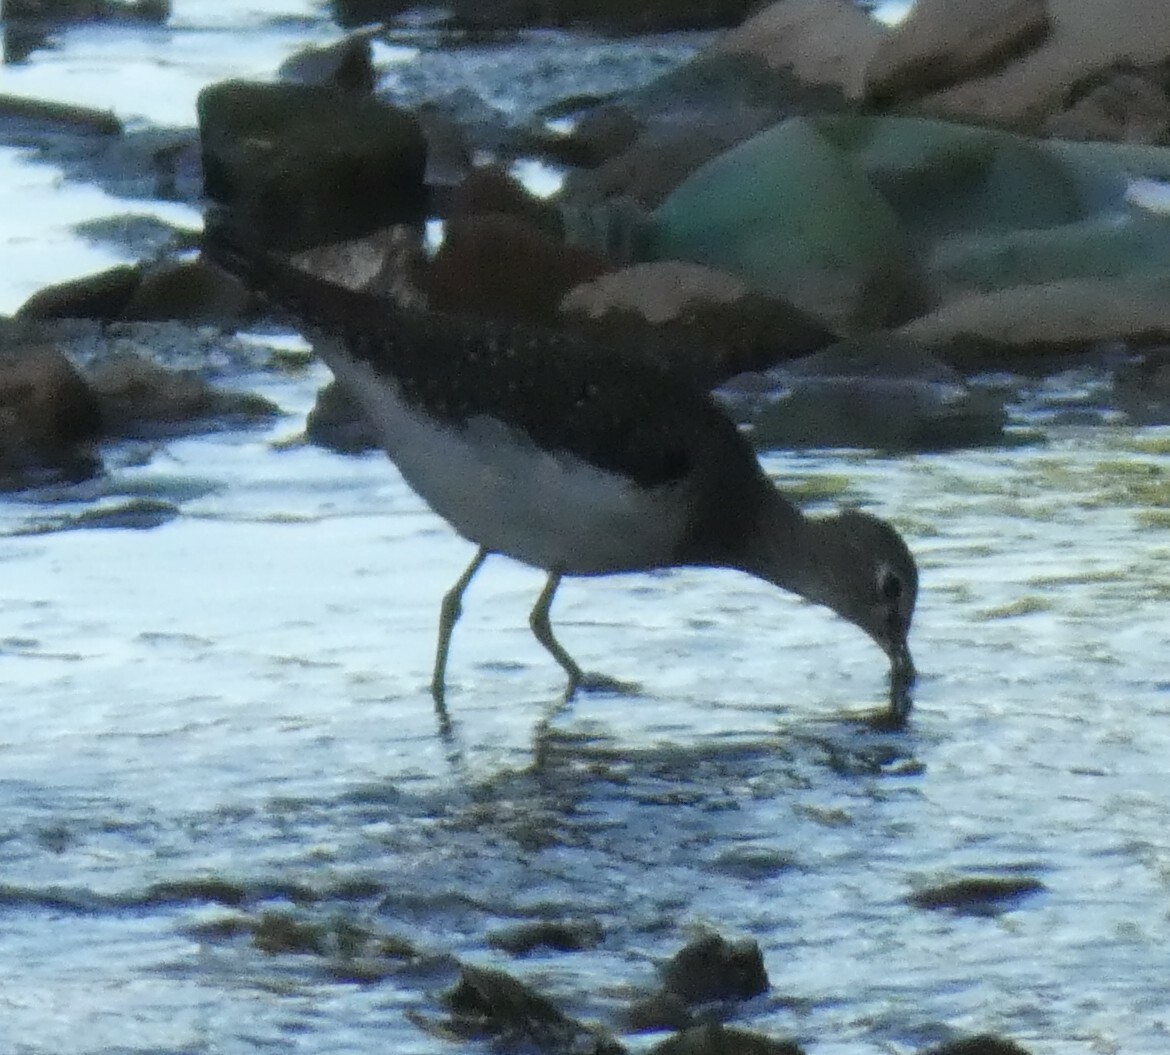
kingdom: Animalia
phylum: Chordata
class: Aves
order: Charadriiformes
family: Scolopacidae
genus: Tringa
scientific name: Tringa solitaria
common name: Solitary sandpiper
